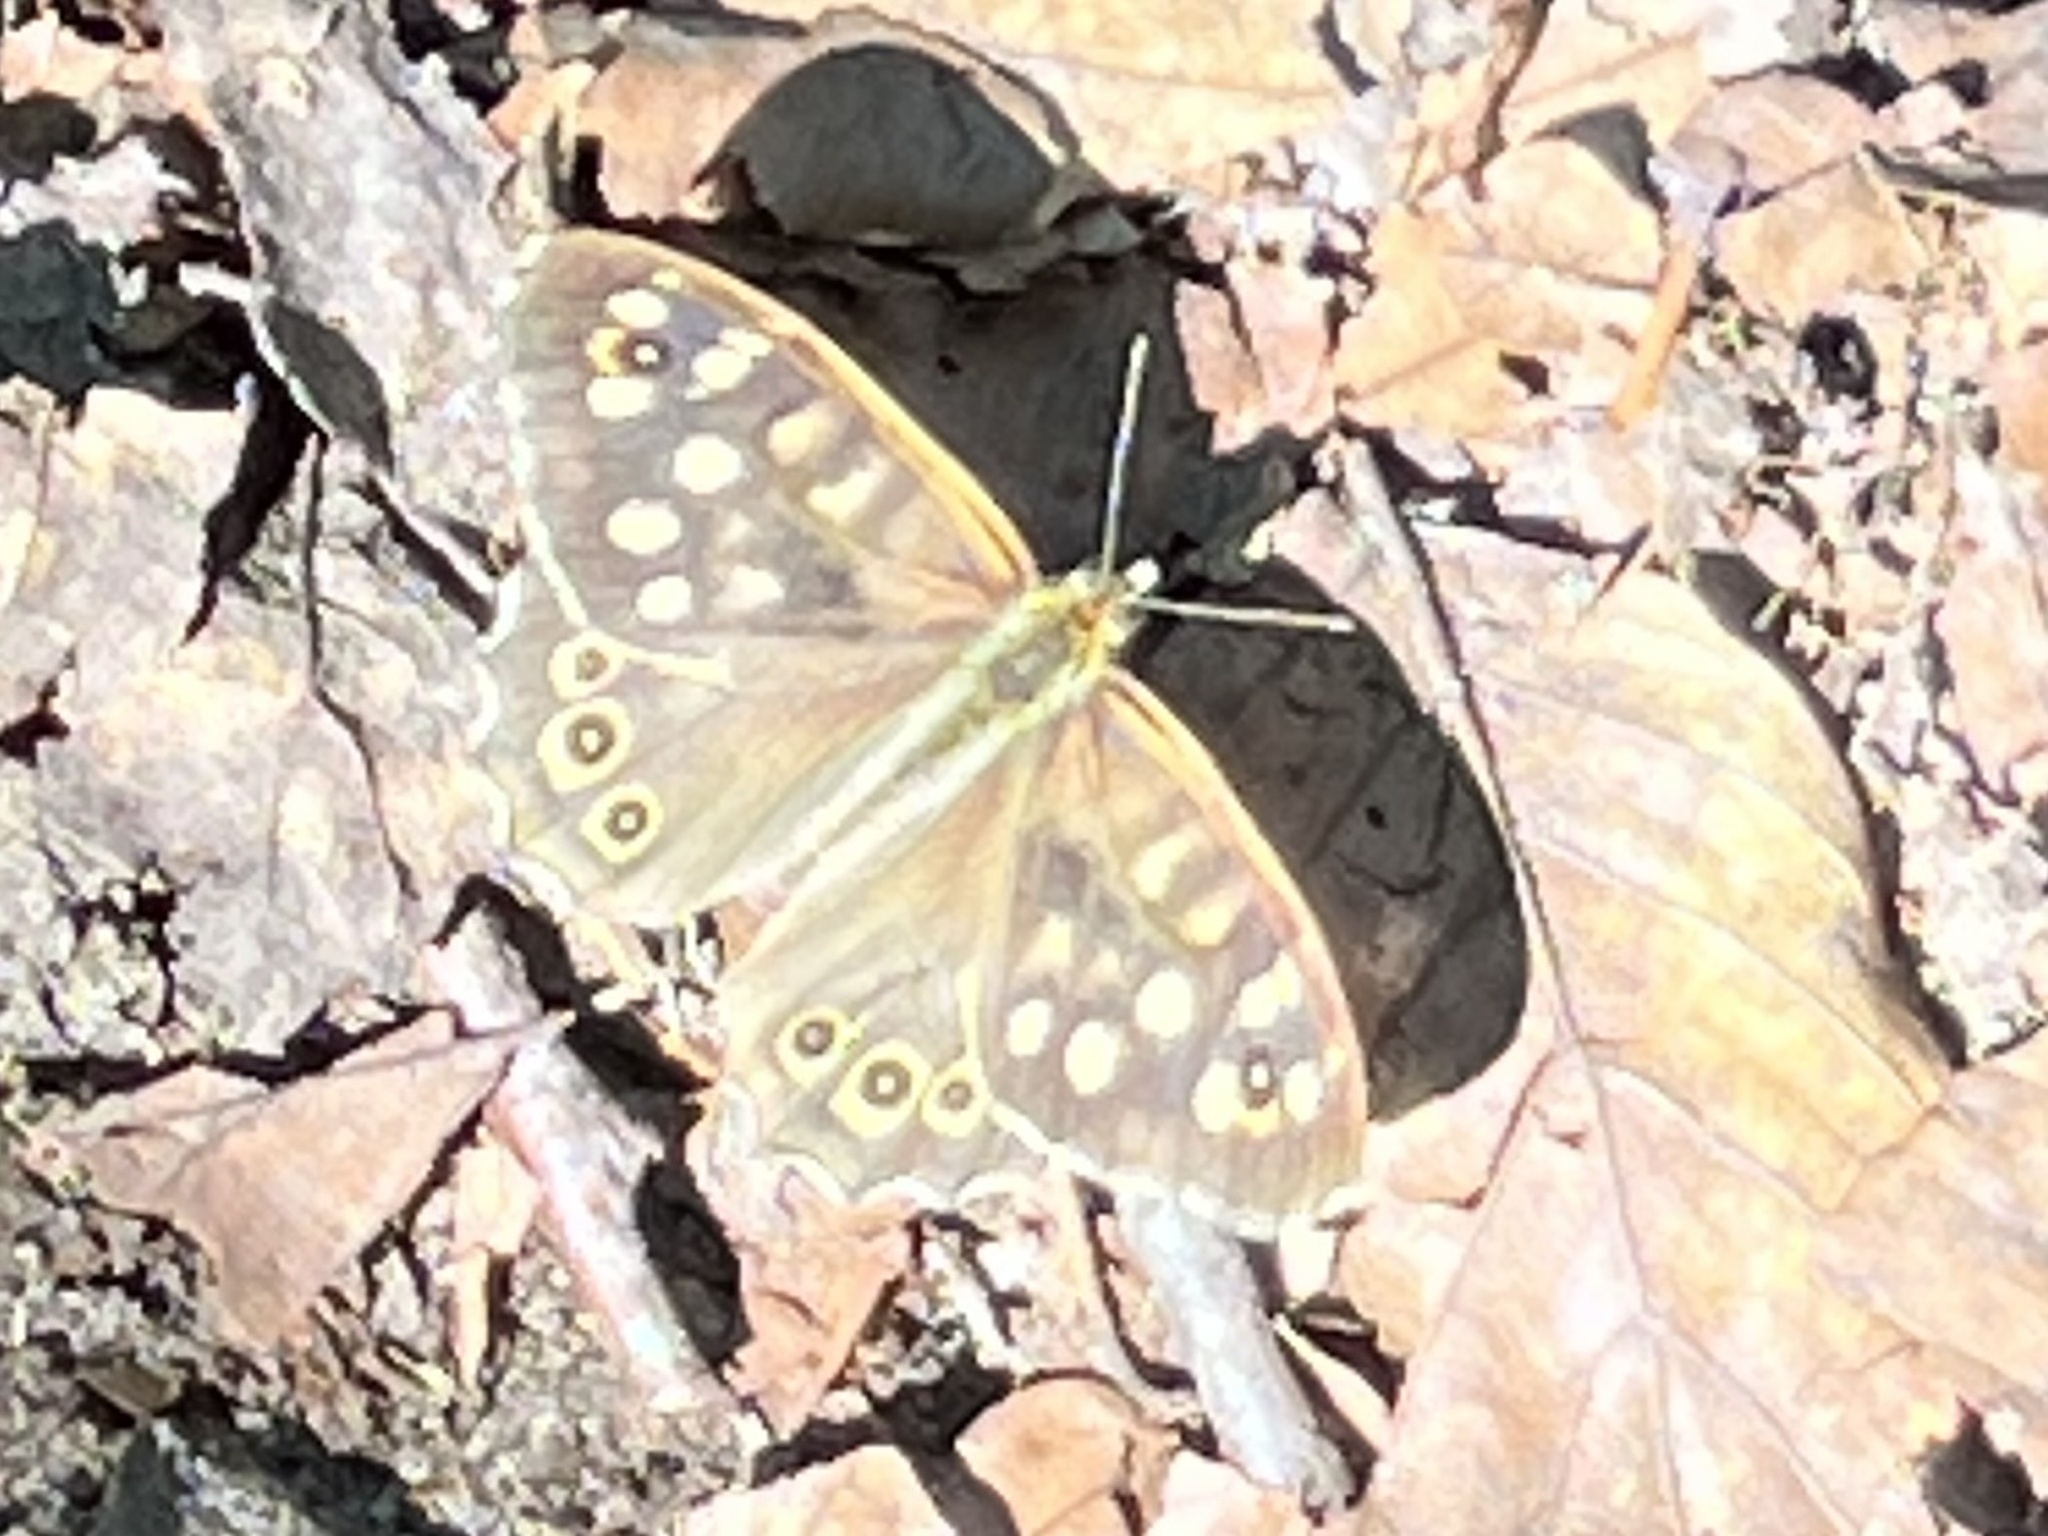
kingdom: Animalia
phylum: Arthropoda
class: Insecta
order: Lepidoptera
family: Nymphalidae
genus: Pararge
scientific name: Pararge aegeria
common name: Speckled wood
